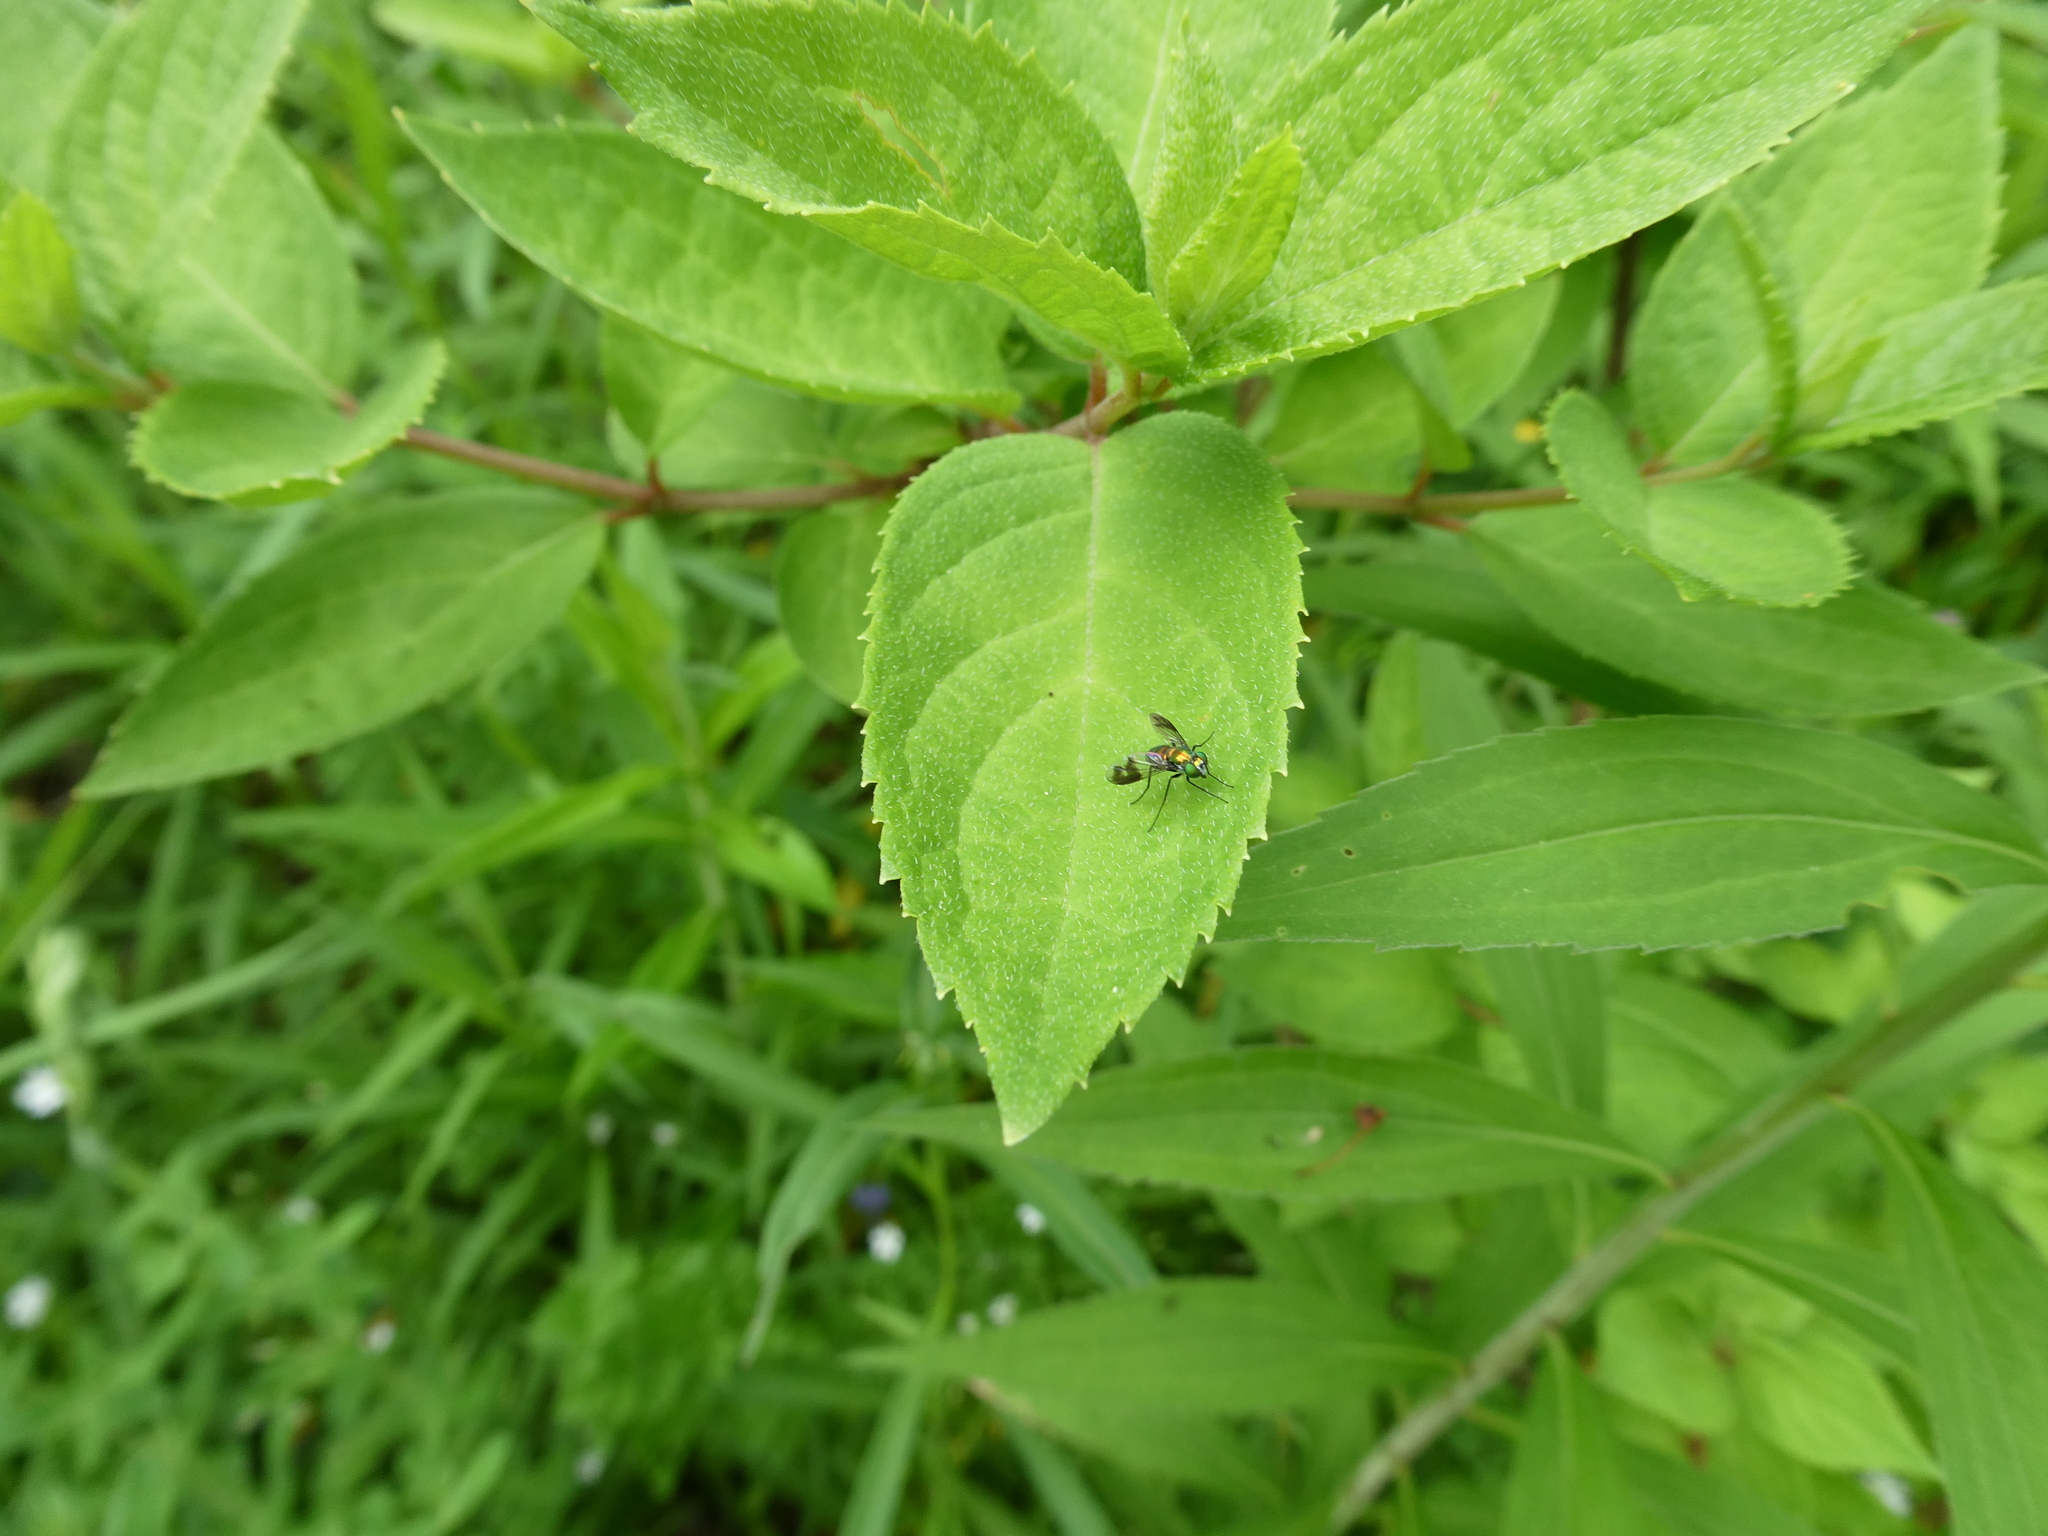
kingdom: Animalia
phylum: Arthropoda
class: Insecta
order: Diptera
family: Dolichopodidae
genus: Condylostylus
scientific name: Condylostylus patibulatus
